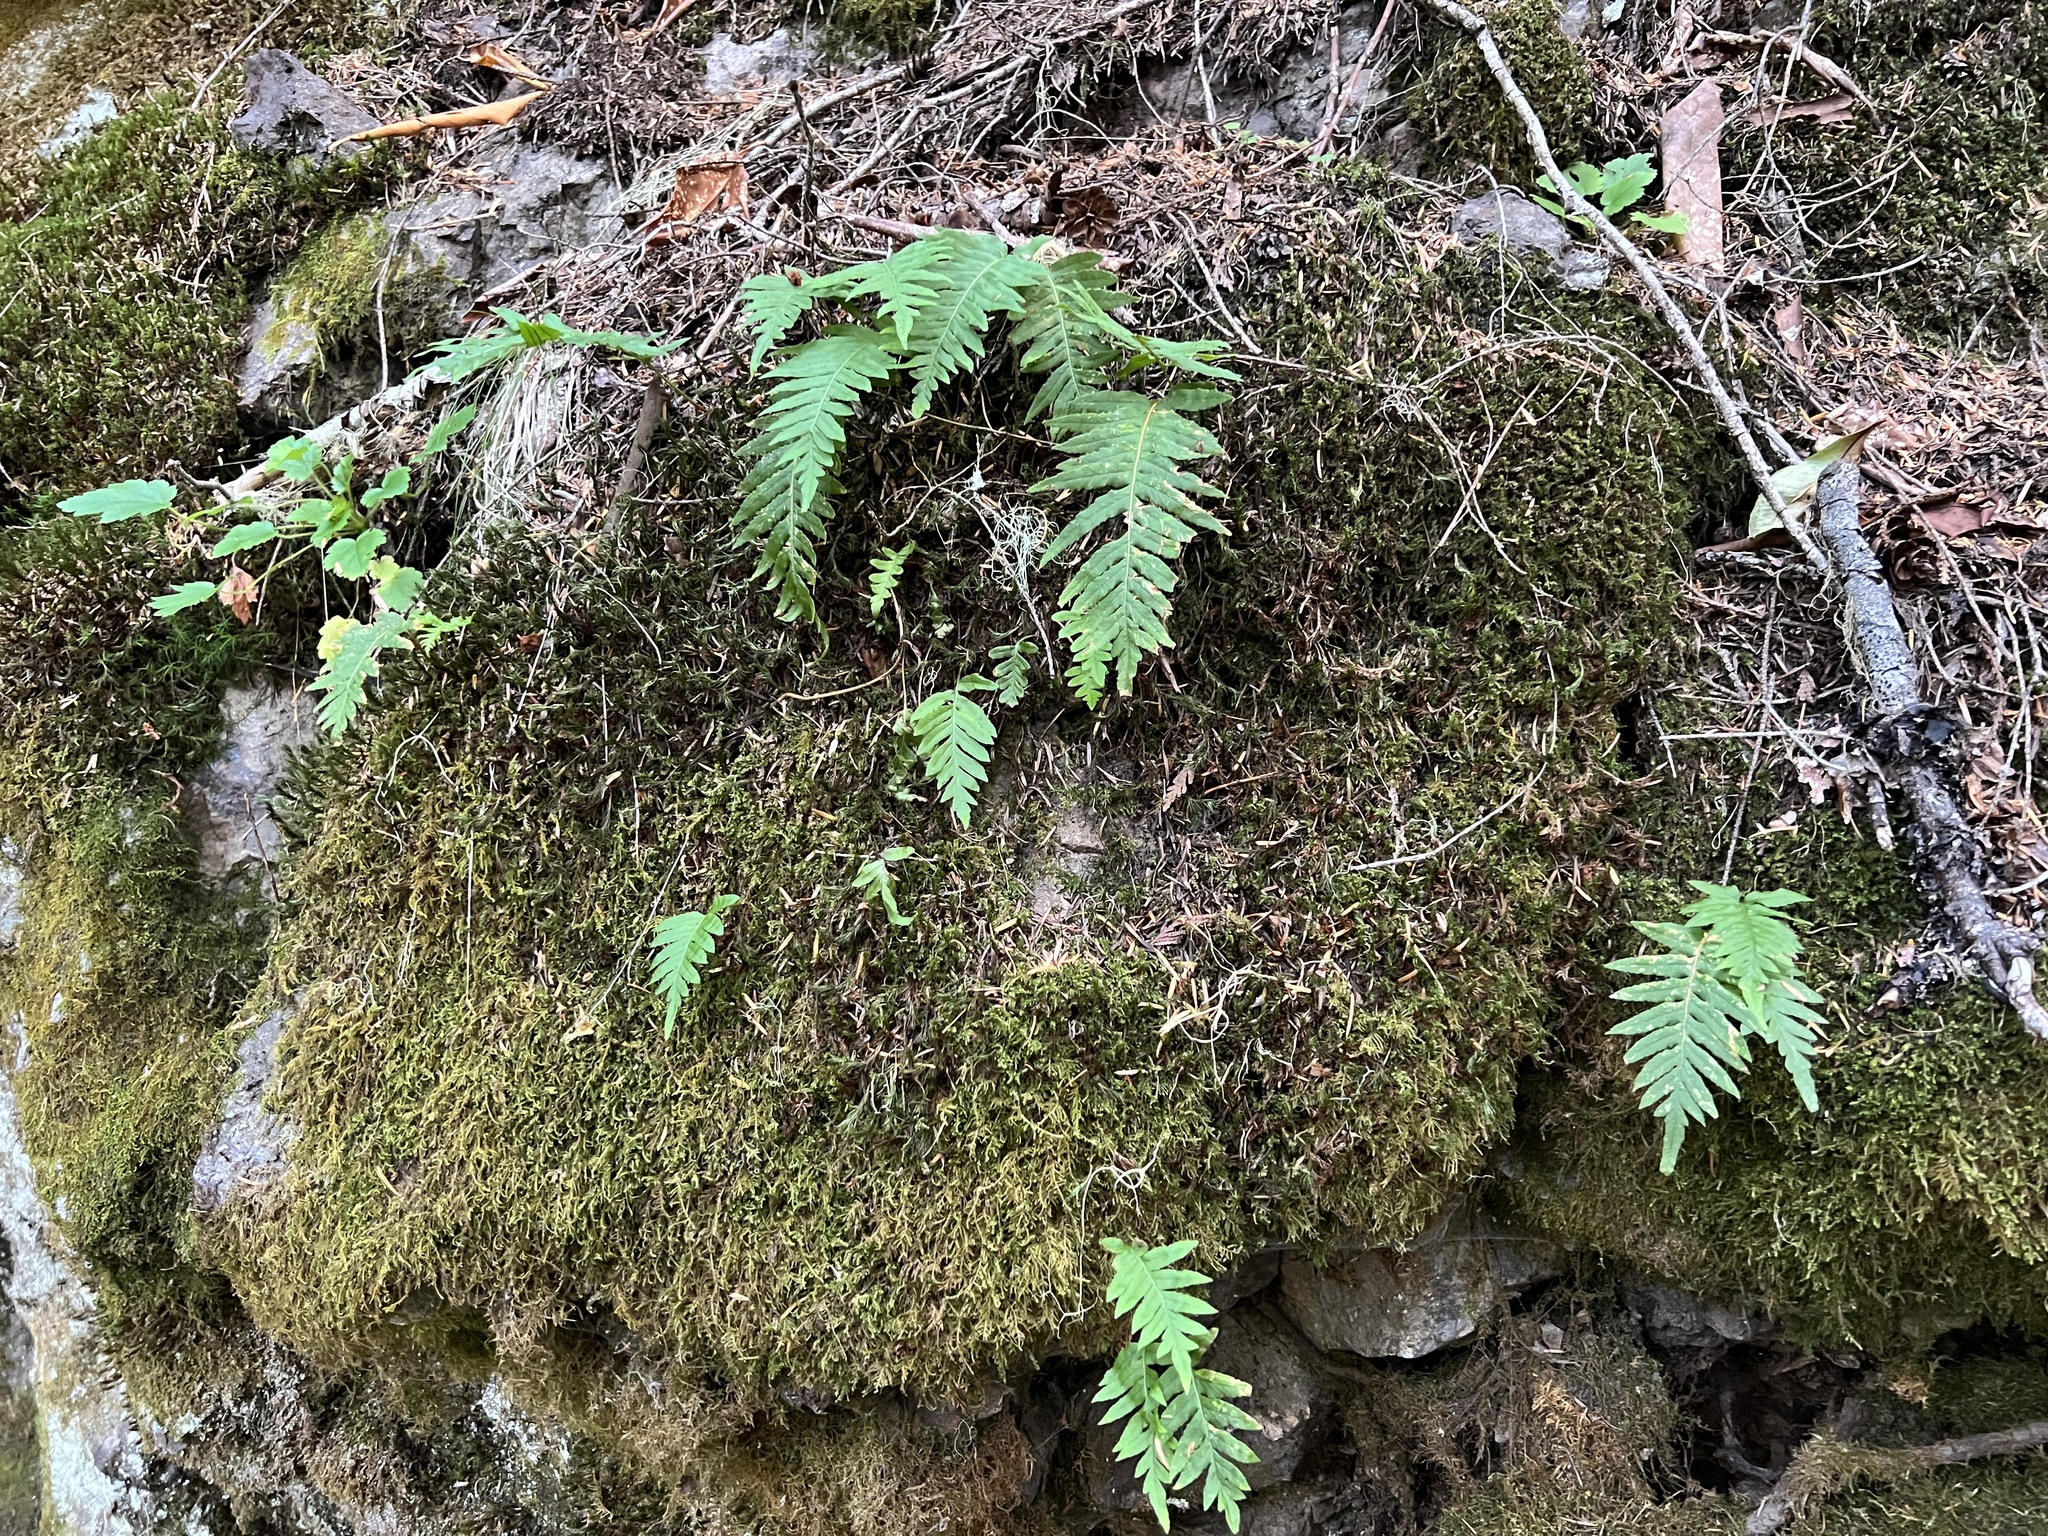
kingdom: Plantae
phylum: Tracheophyta
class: Polypodiopsida
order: Polypodiales
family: Polypodiaceae
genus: Polypodium
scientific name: Polypodium glycyrrhiza
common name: Licorice fern
